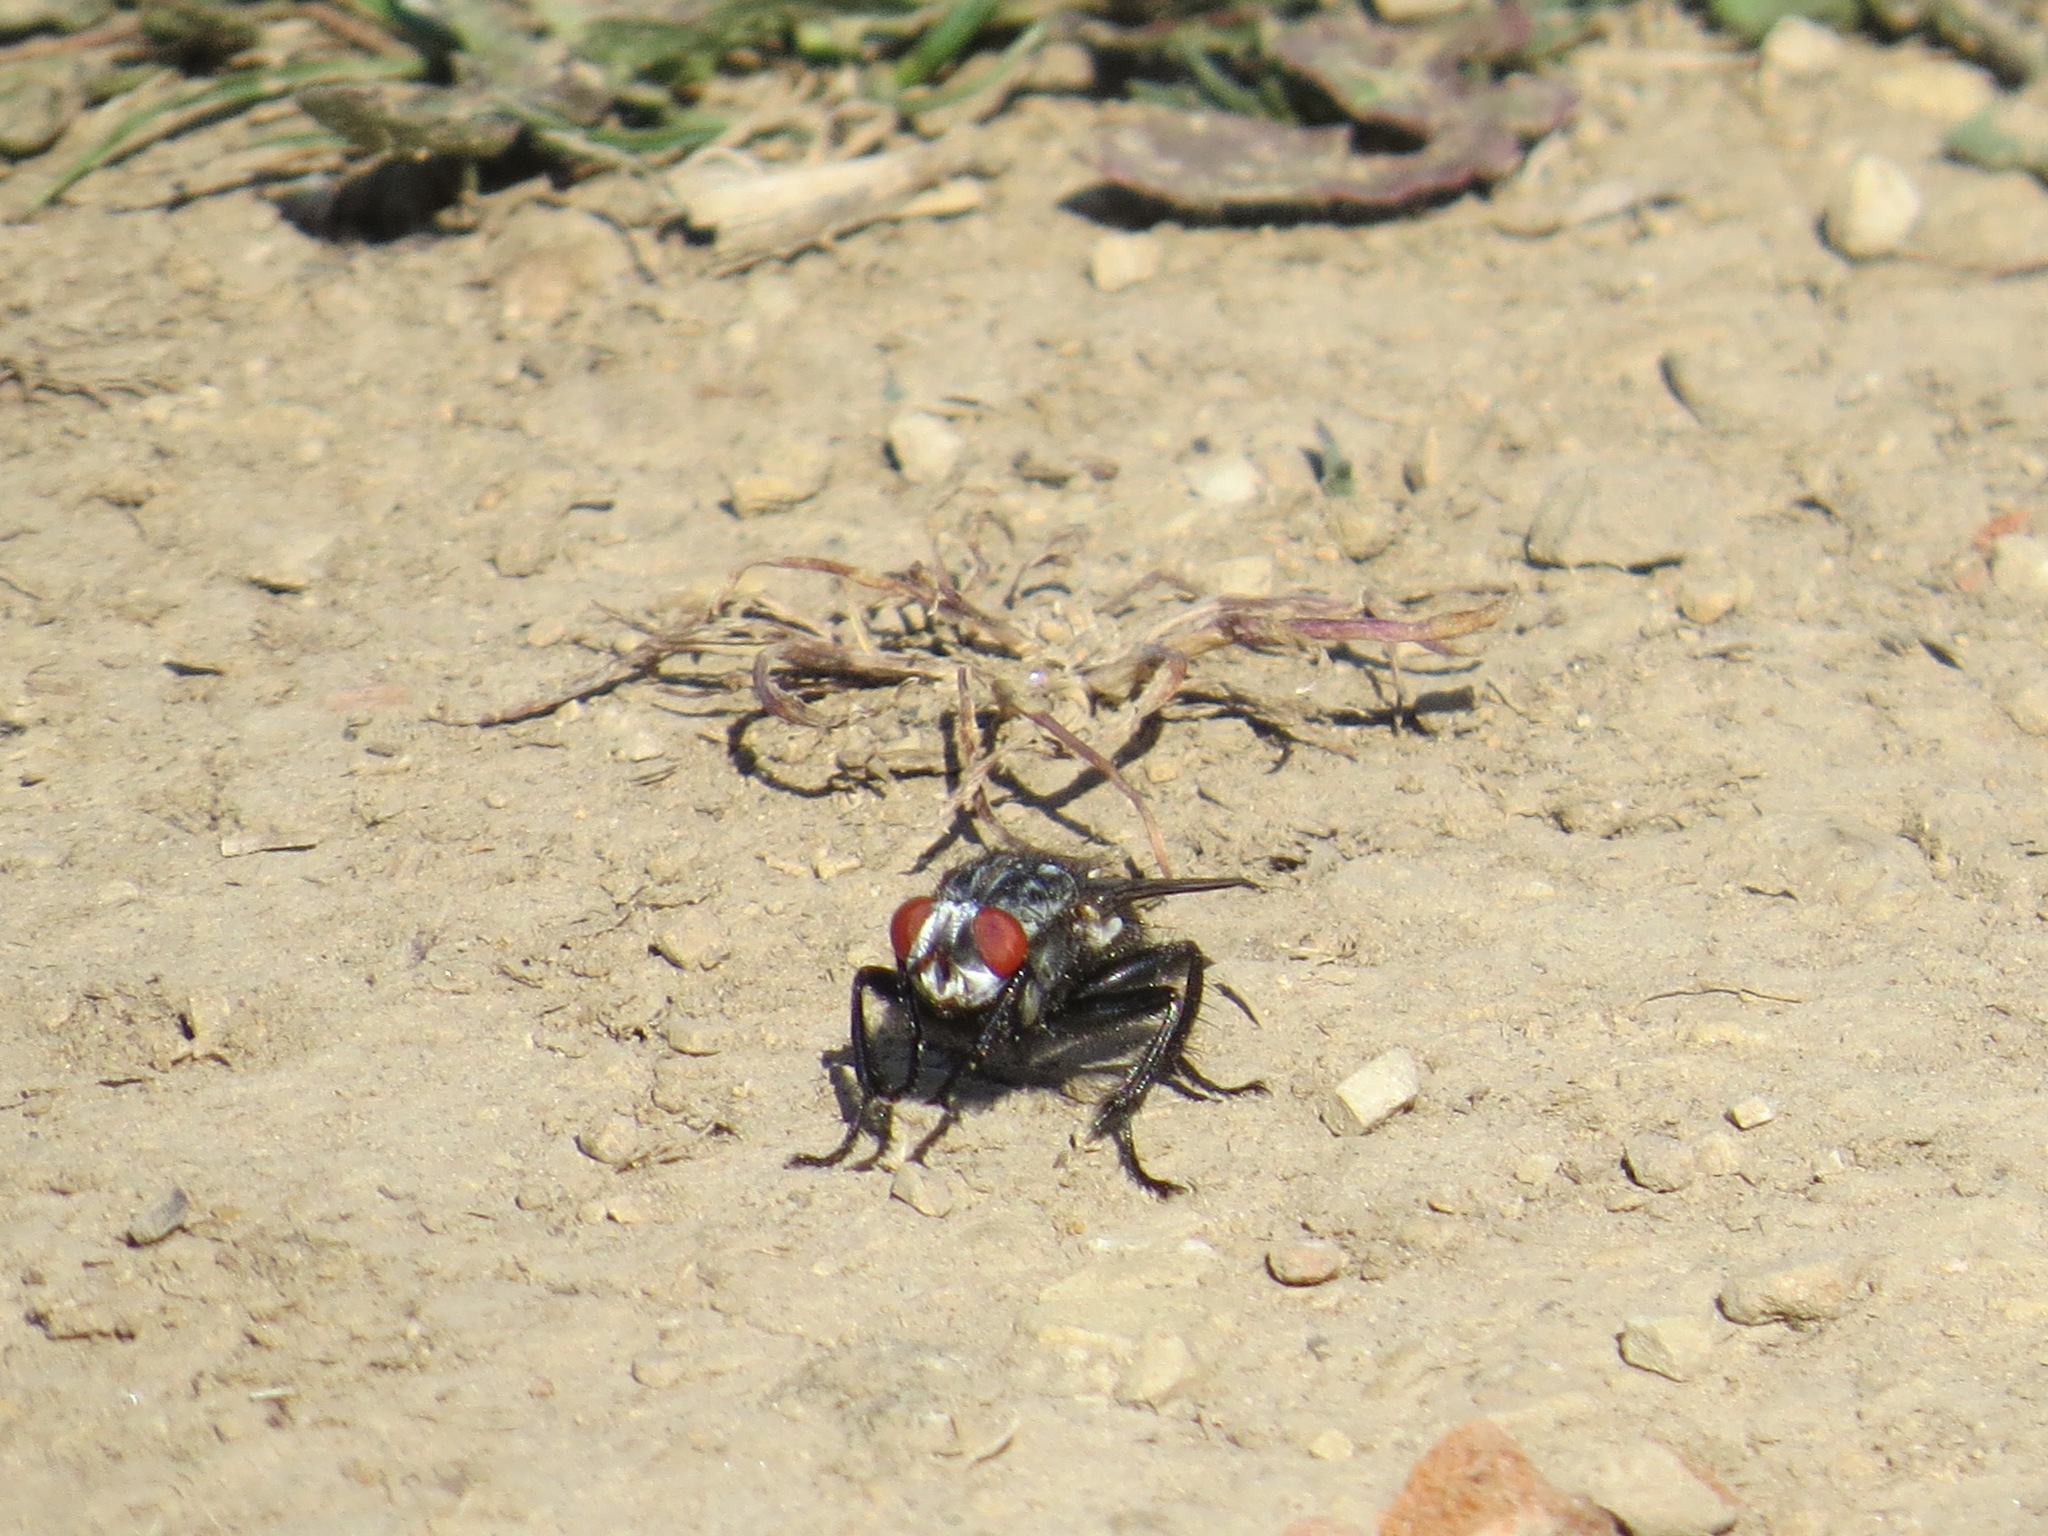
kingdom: Animalia
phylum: Arthropoda
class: Insecta
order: Diptera
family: Sarcophagidae
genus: Wohlfahrtia
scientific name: Wohlfahrtia vigil
